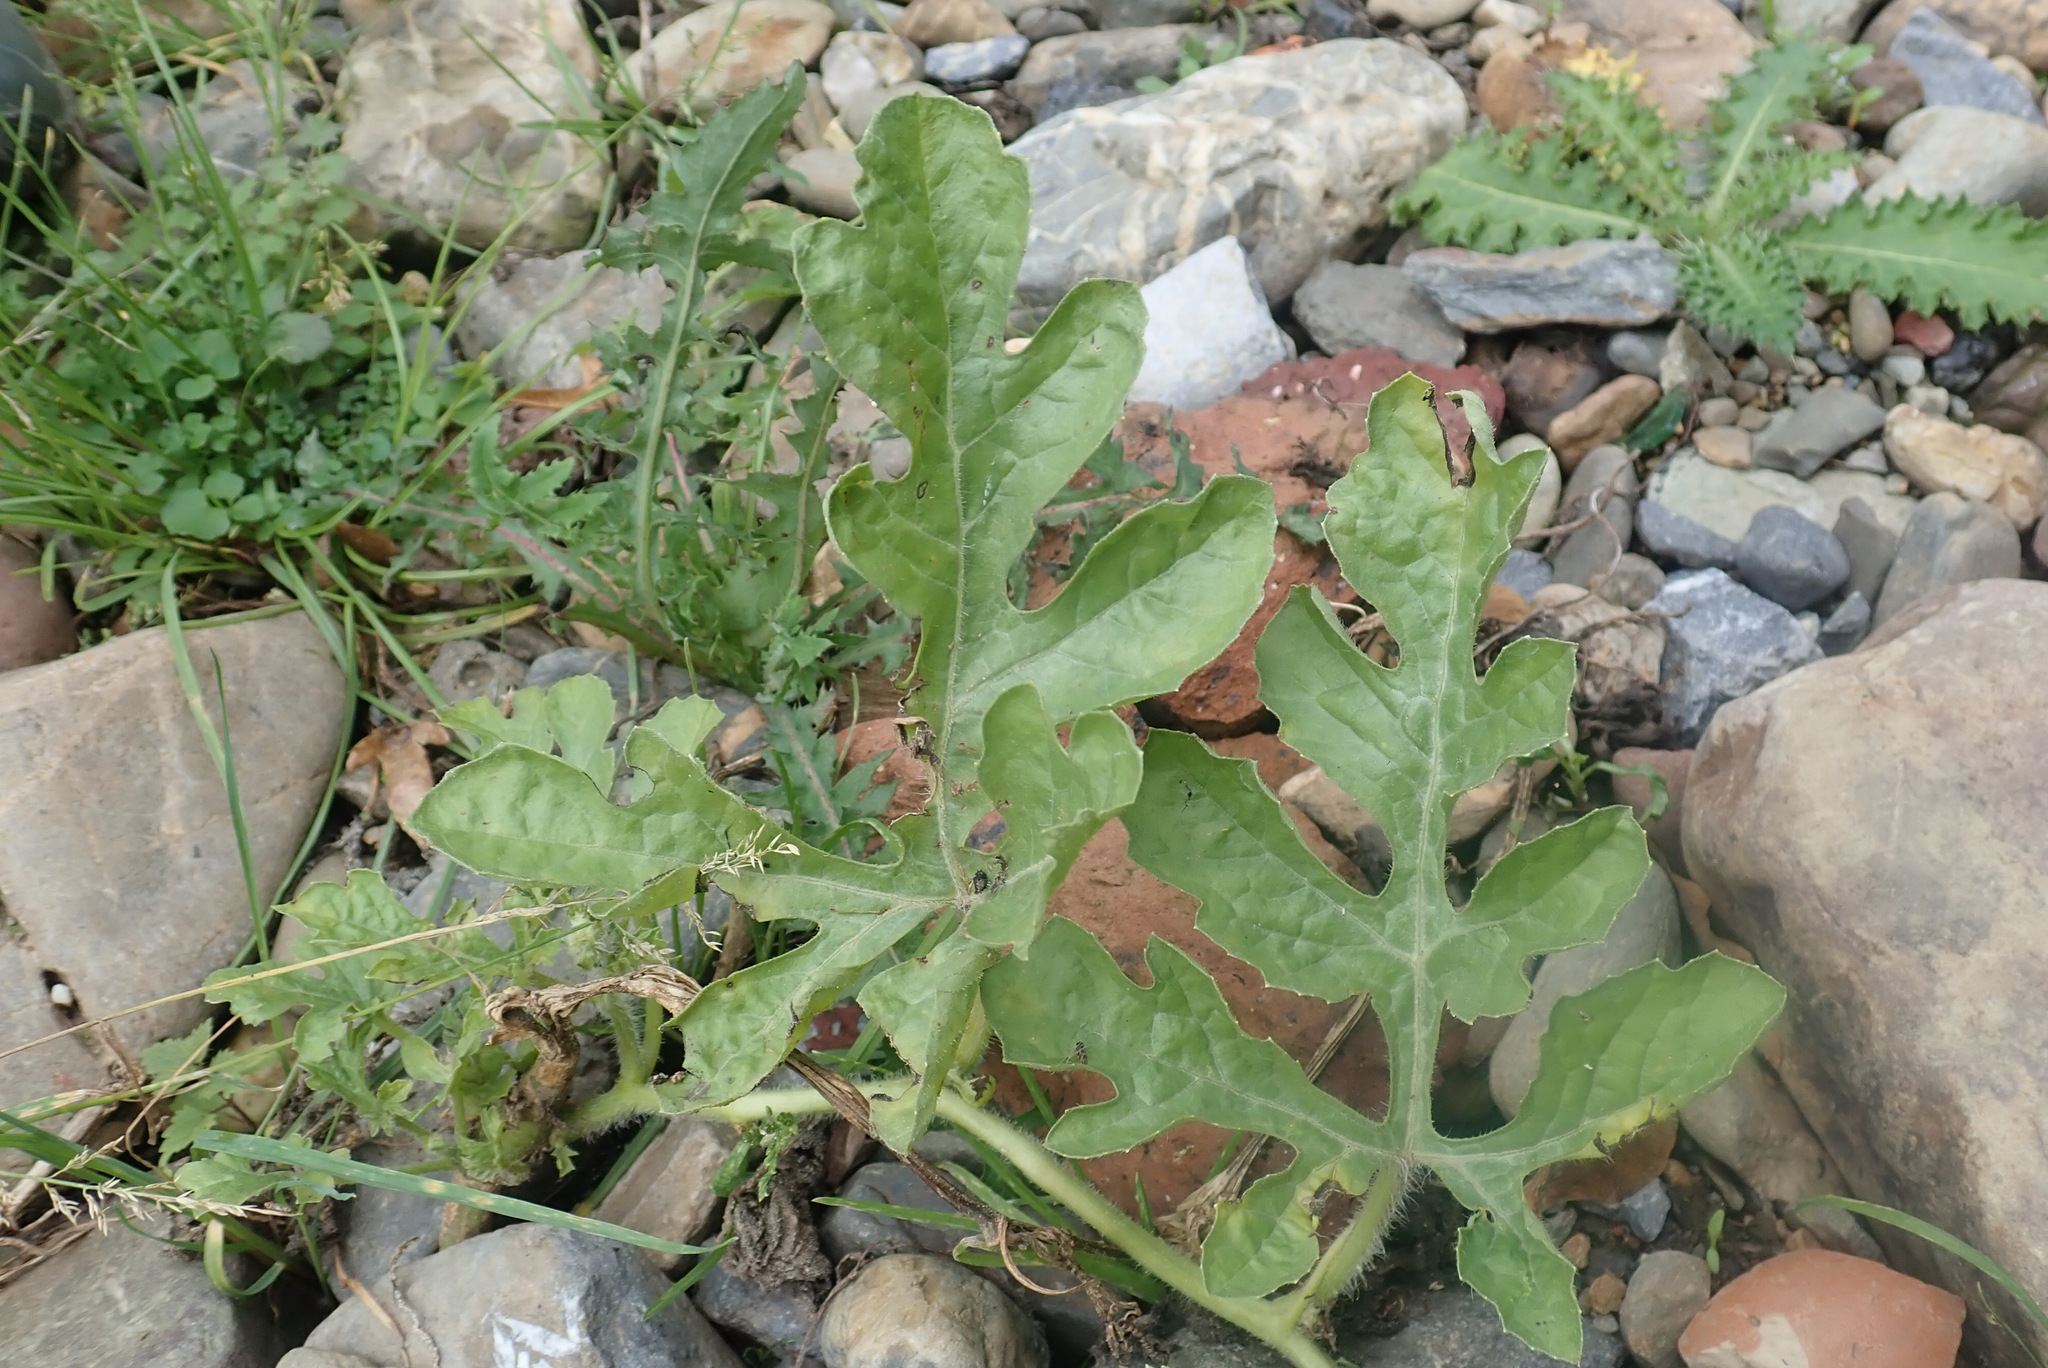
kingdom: Plantae
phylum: Tracheophyta
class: Magnoliopsida
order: Cucurbitales
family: Cucurbitaceae
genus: Citrullus
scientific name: Citrullus lanatus
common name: Watermelon
